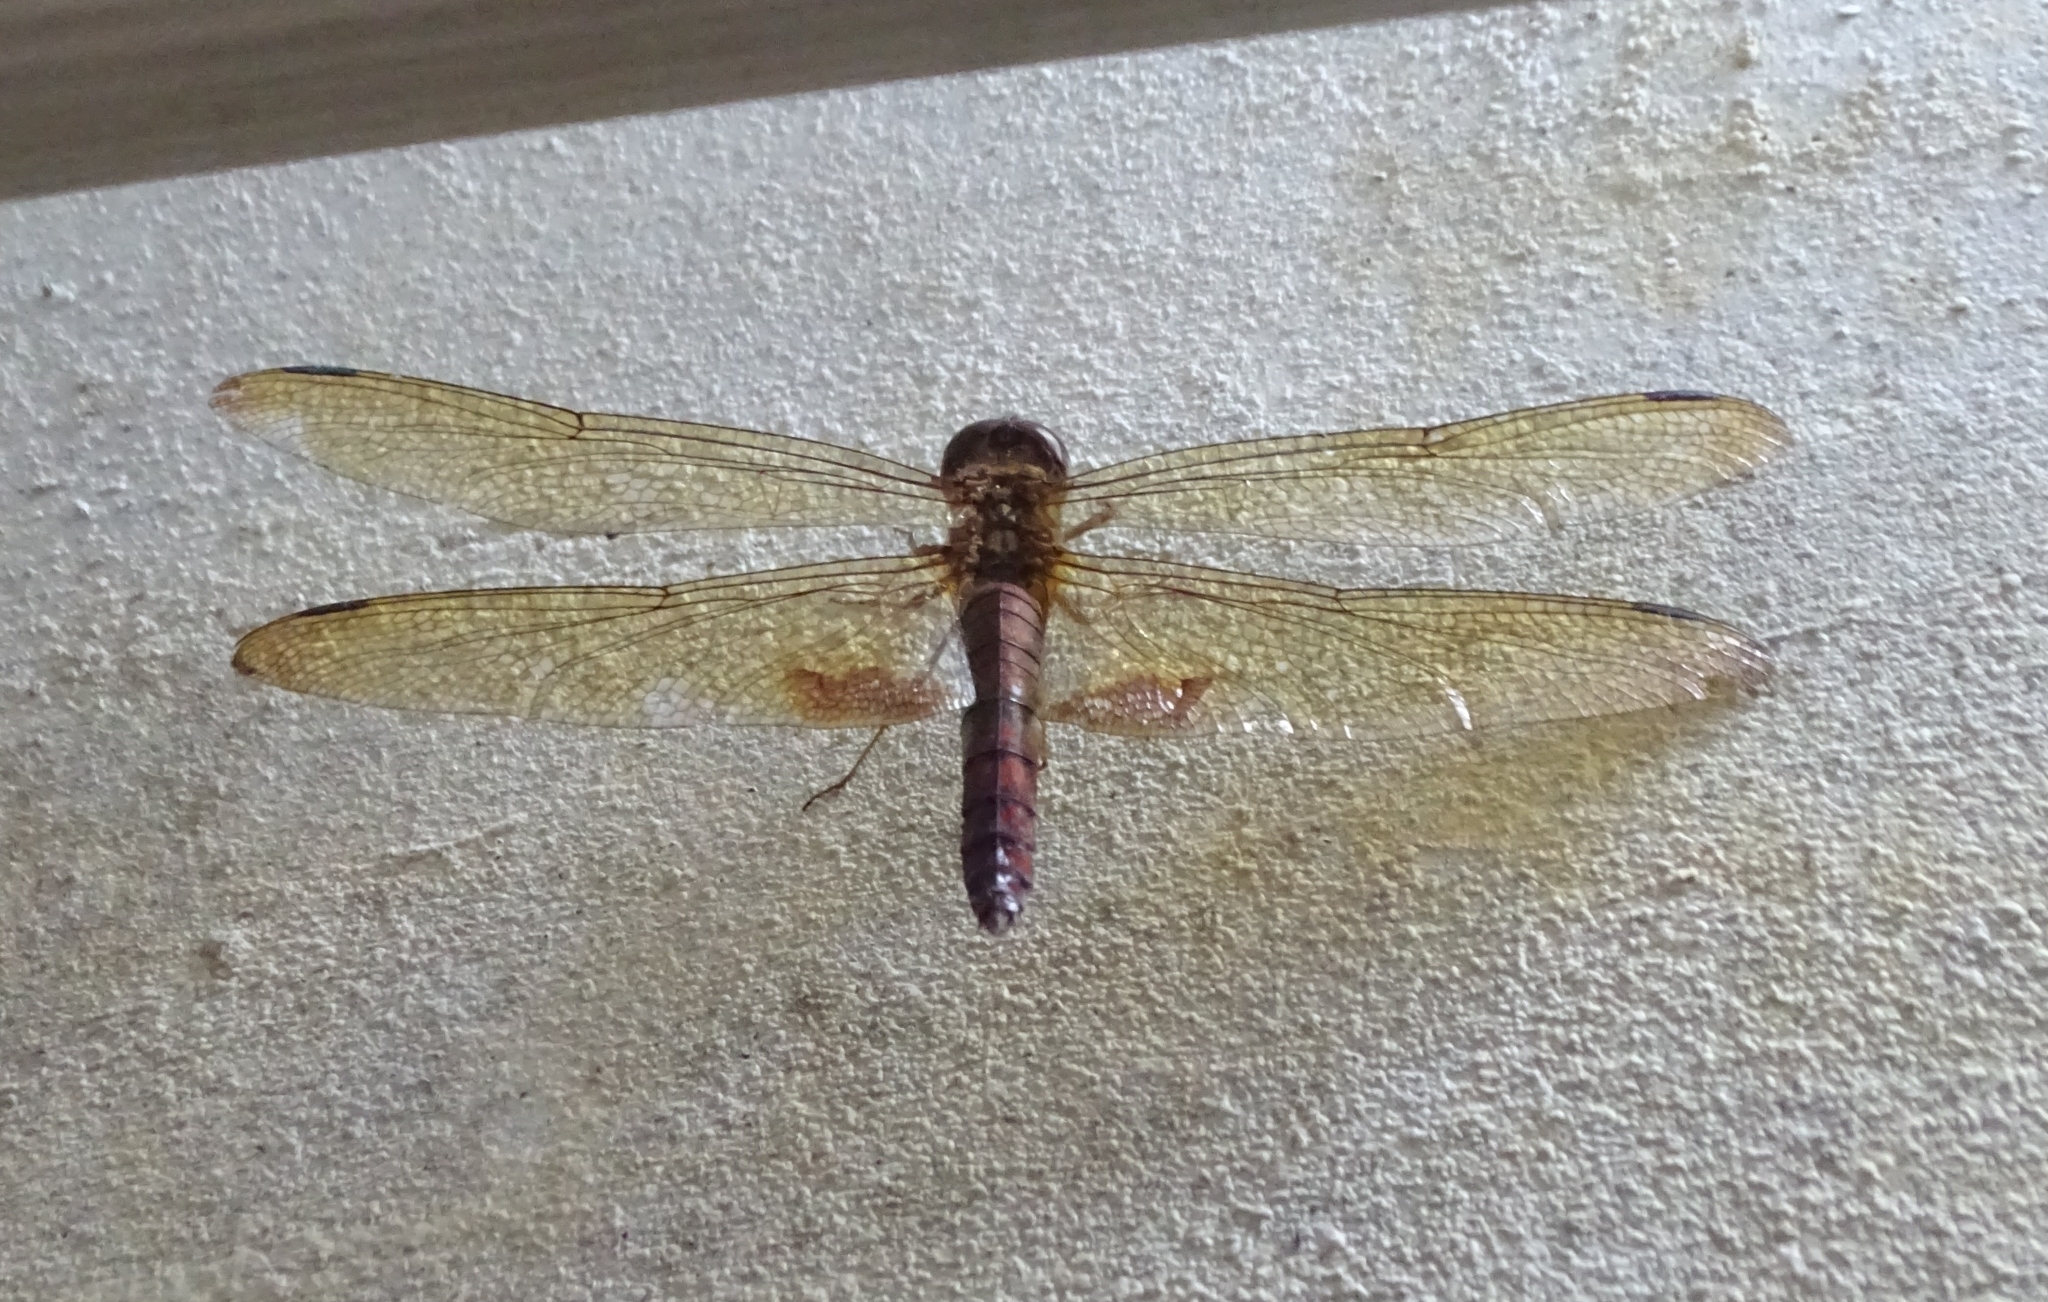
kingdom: Animalia
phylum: Arthropoda
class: Insecta
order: Odonata
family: Libellulidae
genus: Hydrobasileus
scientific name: Hydrobasileus croceus
